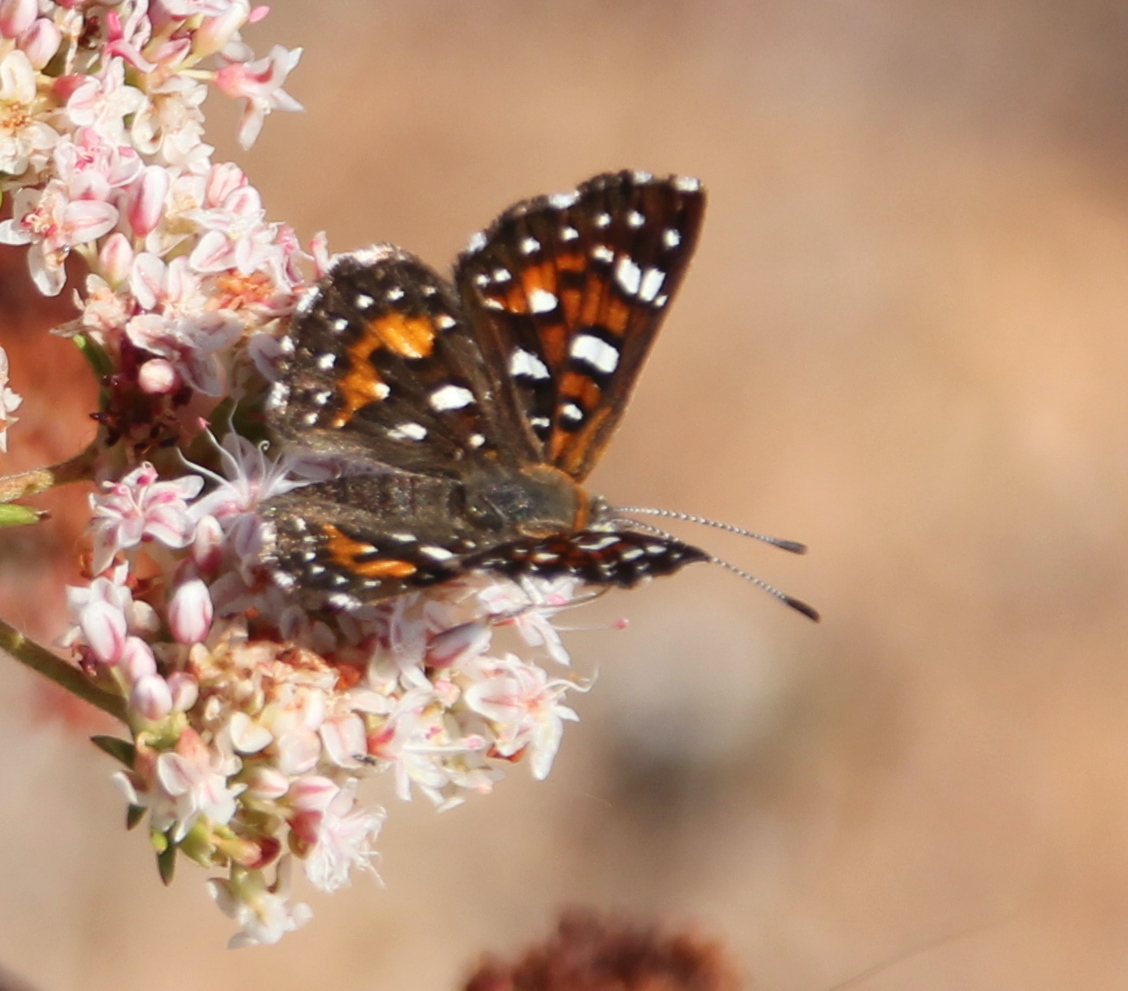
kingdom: Animalia
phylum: Arthropoda
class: Insecta
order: Lepidoptera
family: Riodinidae
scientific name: Riodinidae
